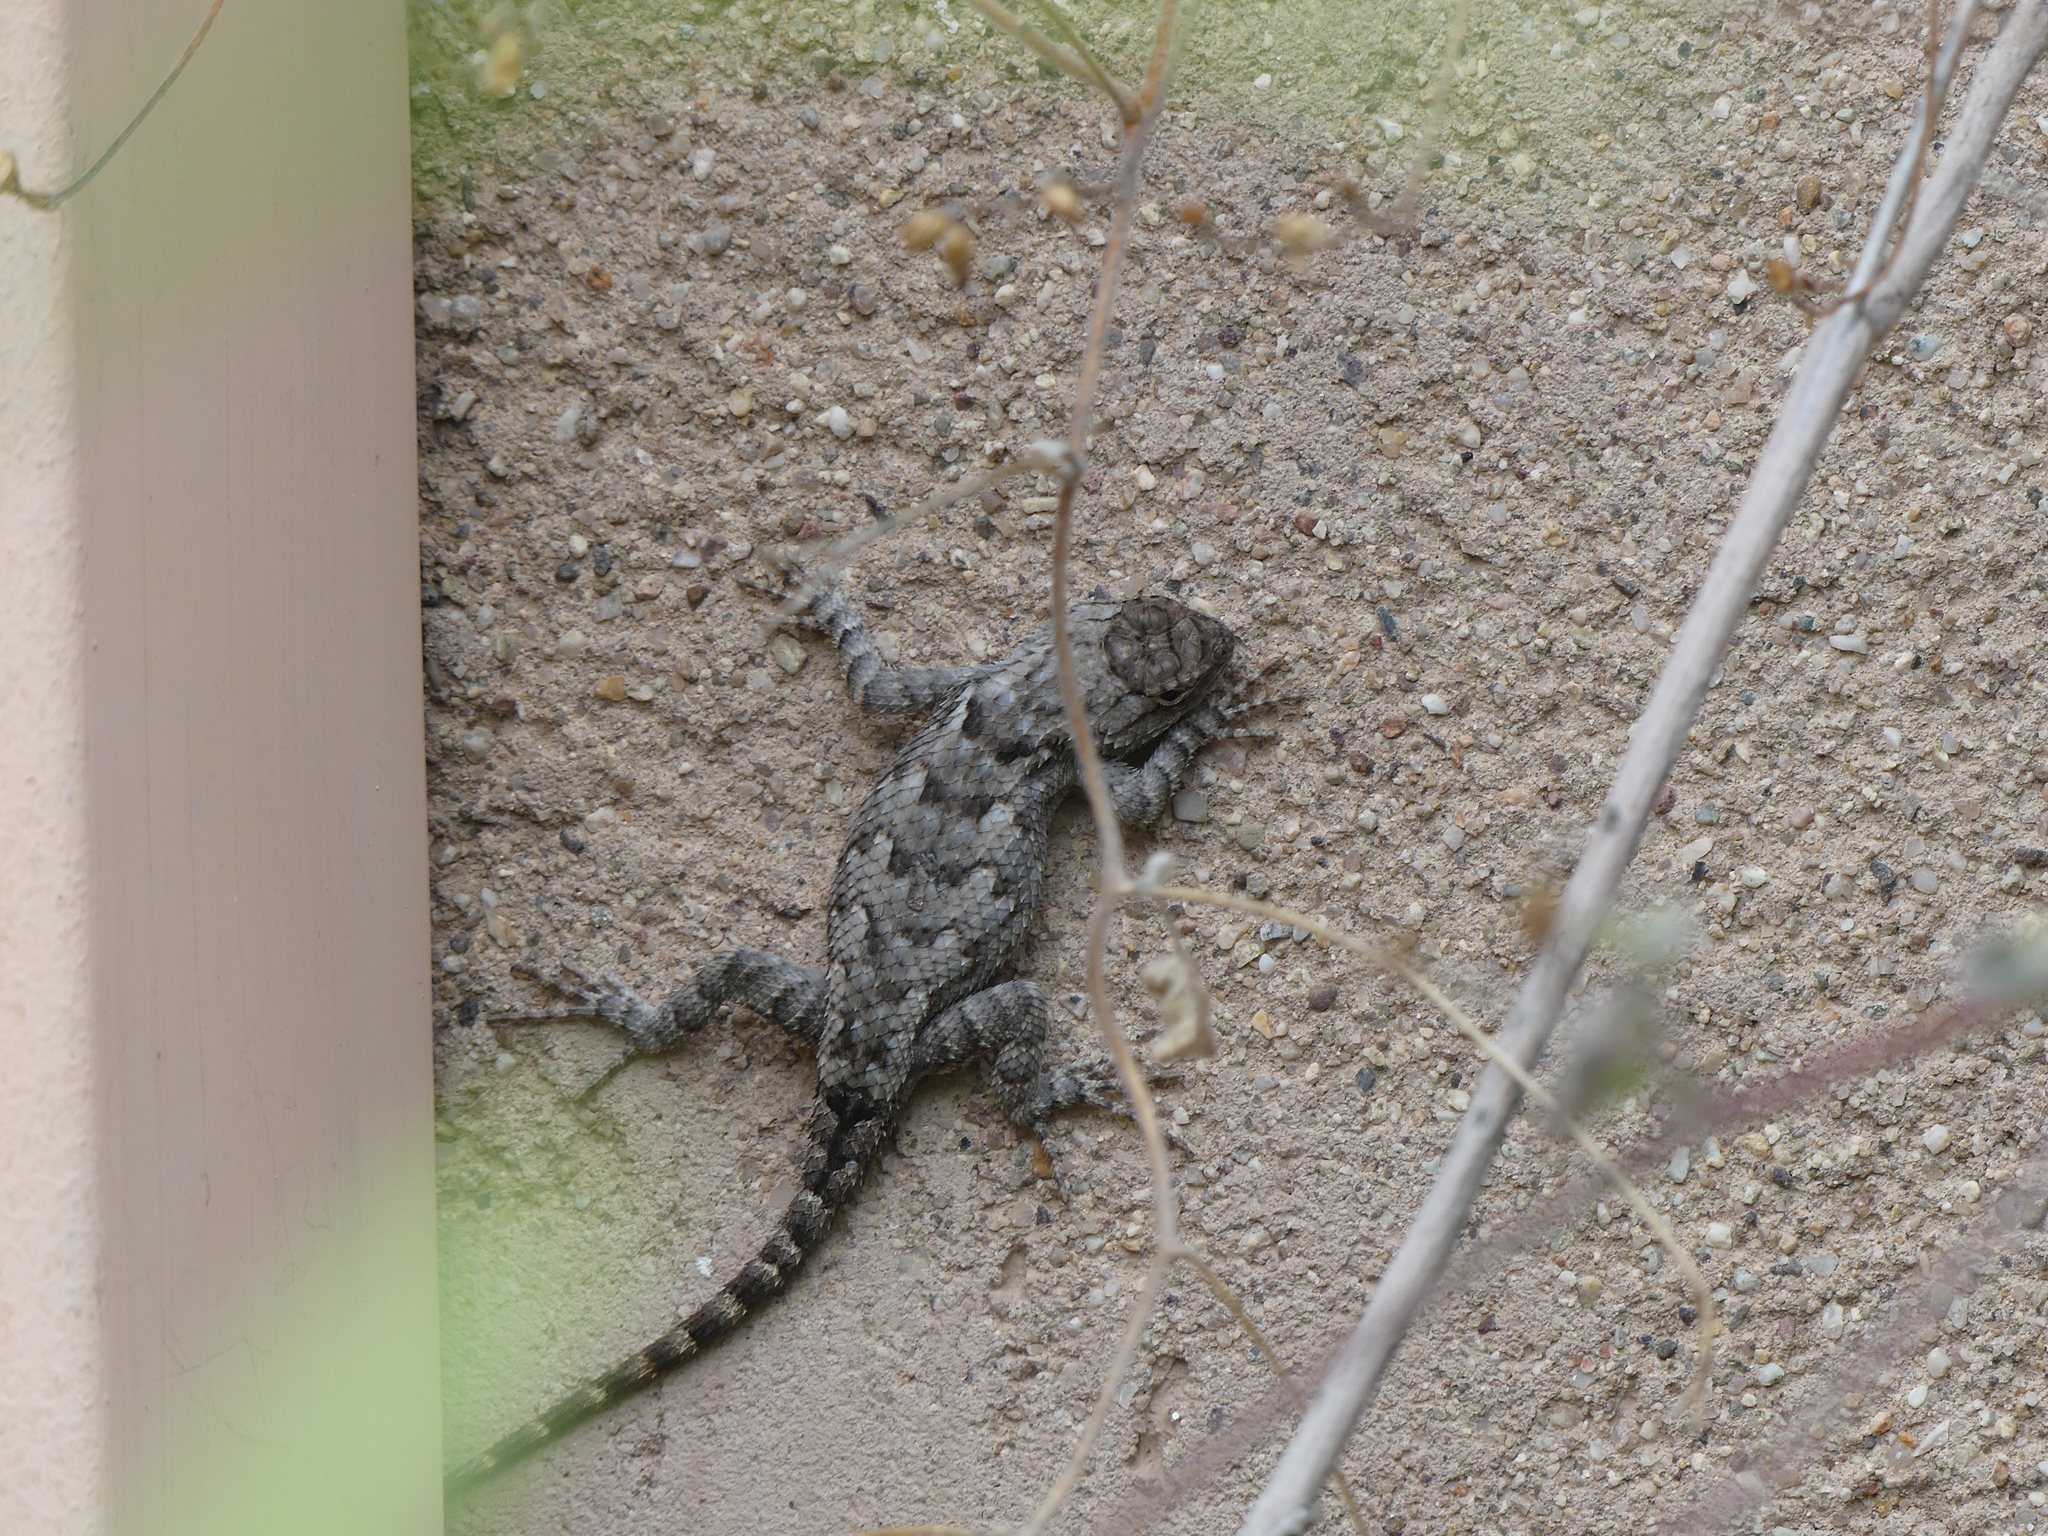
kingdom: Animalia
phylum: Chordata
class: Squamata
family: Phrynosomatidae
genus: Sceloporus
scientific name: Sceloporus clarkii
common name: Clark's spiny lizard
